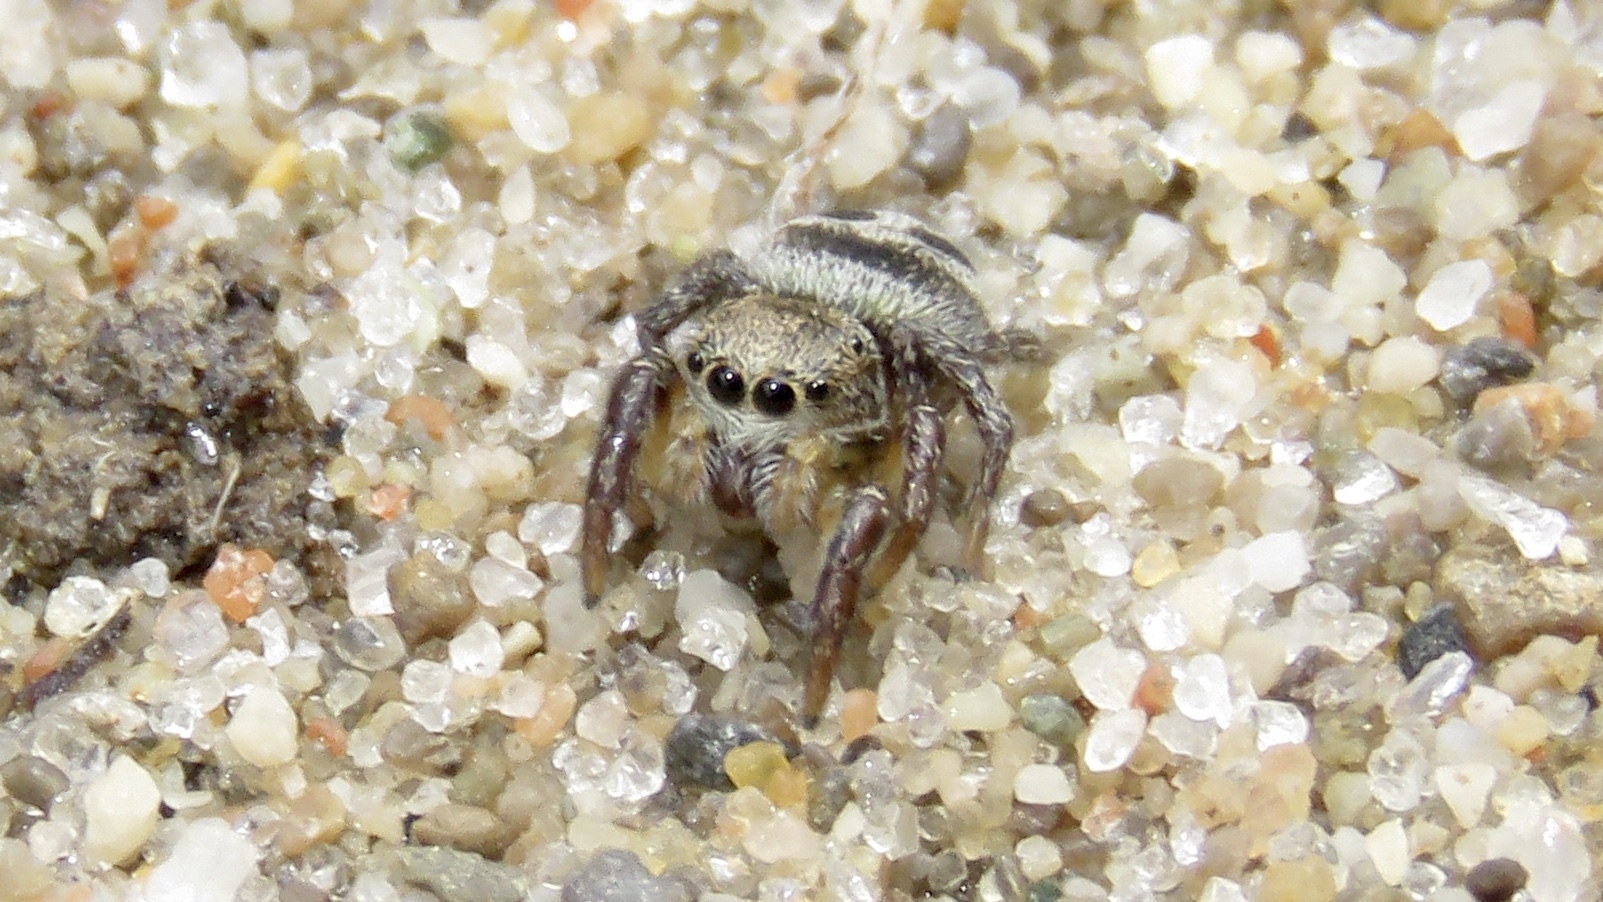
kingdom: Animalia
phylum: Arthropoda
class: Arachnida
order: Araneae
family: Salticidae
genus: Habronattus
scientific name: Habronattus decorus
